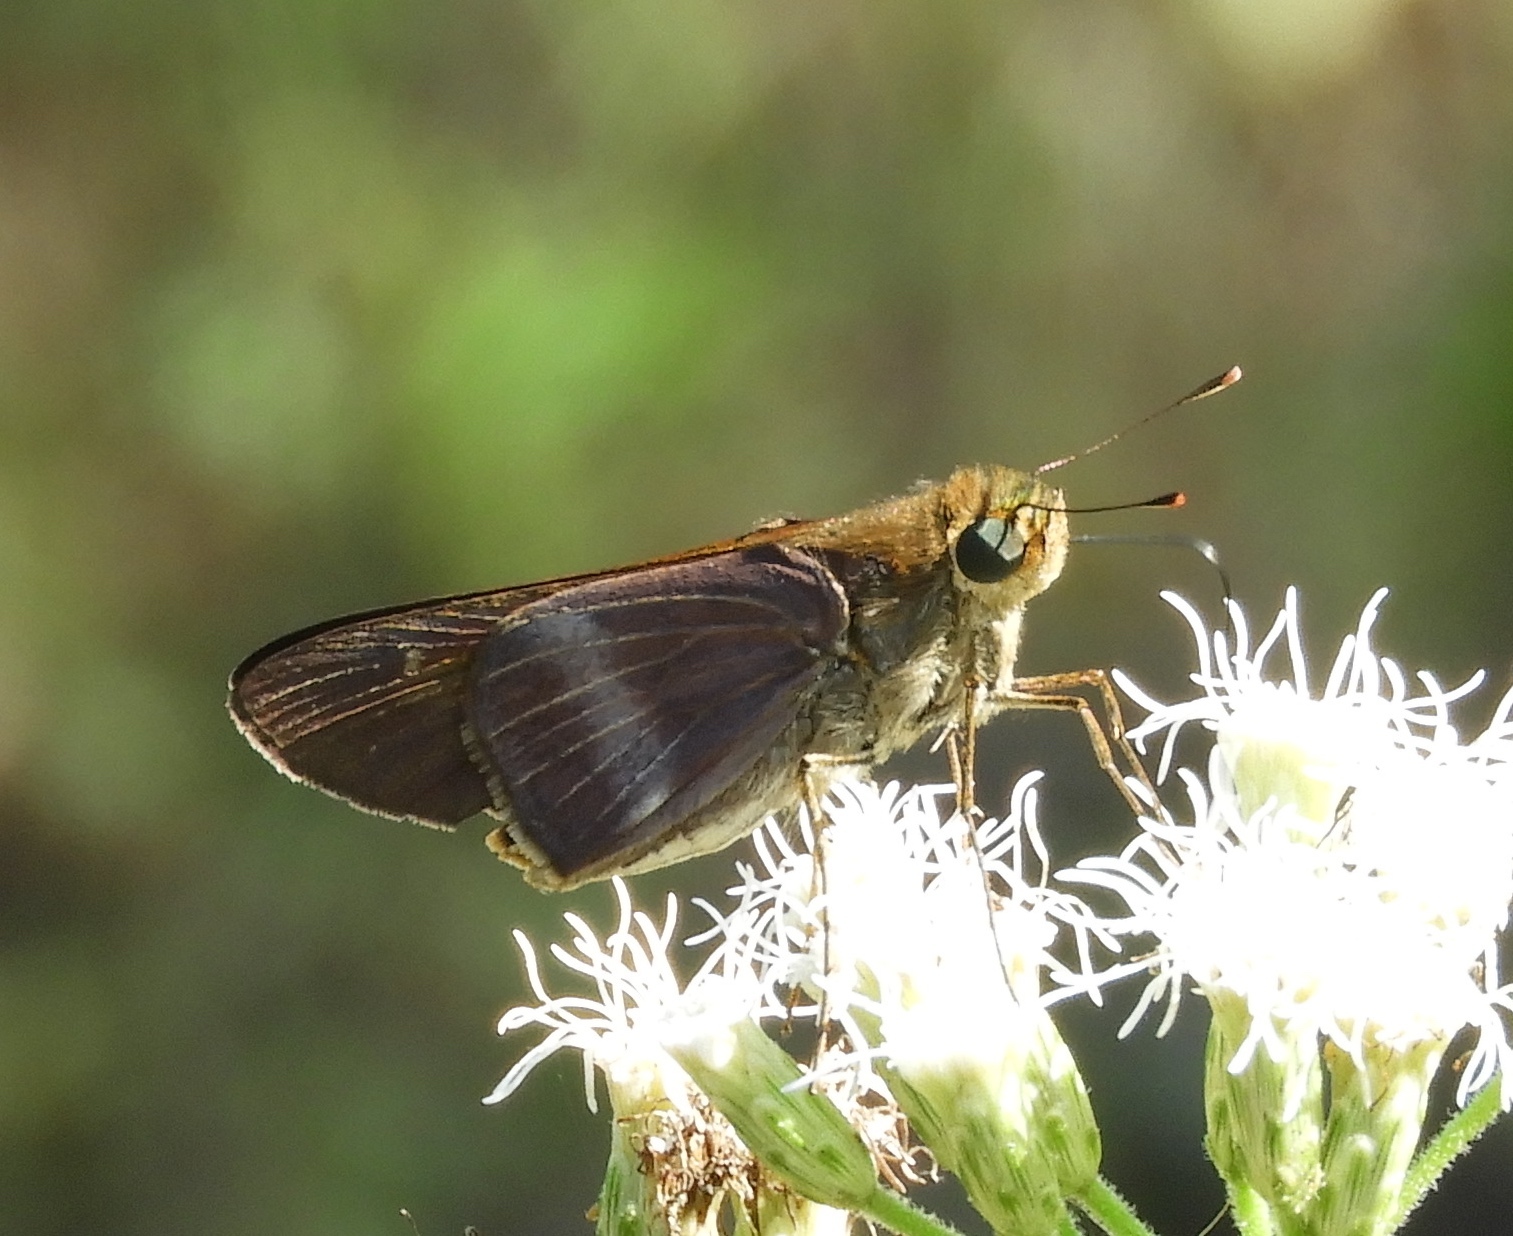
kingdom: Animalia
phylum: Arthropoda
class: Insecta
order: Lepidoptera
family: Hesperiidae
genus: Panoquina
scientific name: Panoquina
